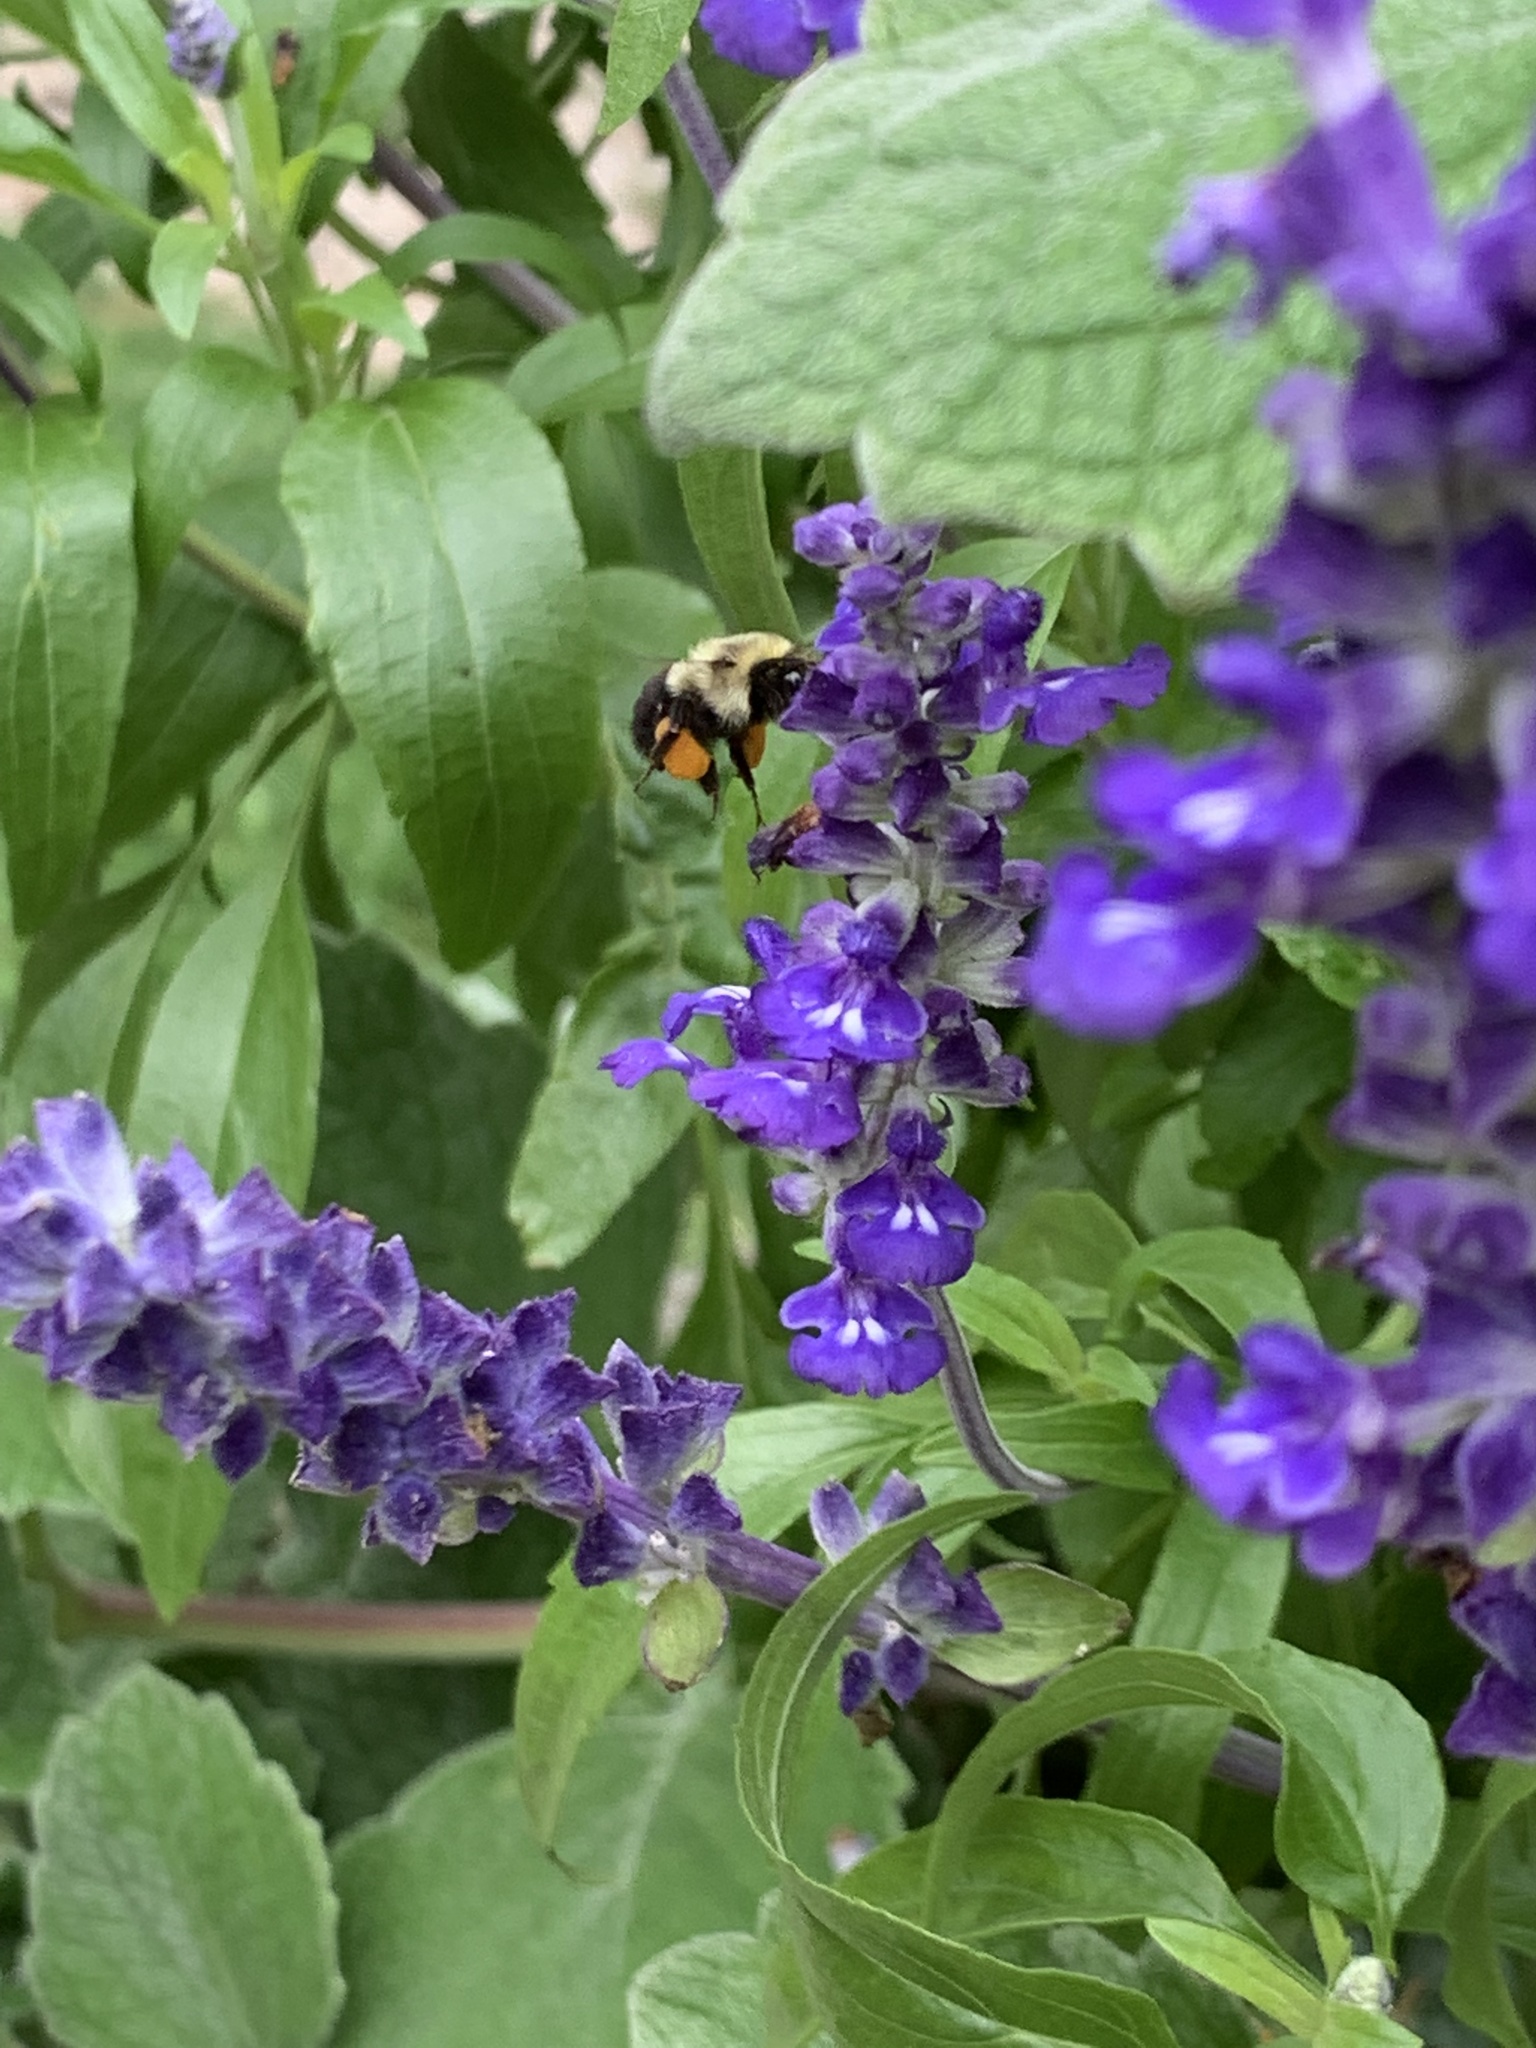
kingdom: Animalia
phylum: Arthropoda
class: Insecta
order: Hymenoptera
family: Apidae
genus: Bombus
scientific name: Bombus impatiens
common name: Common eastern bumble bee
